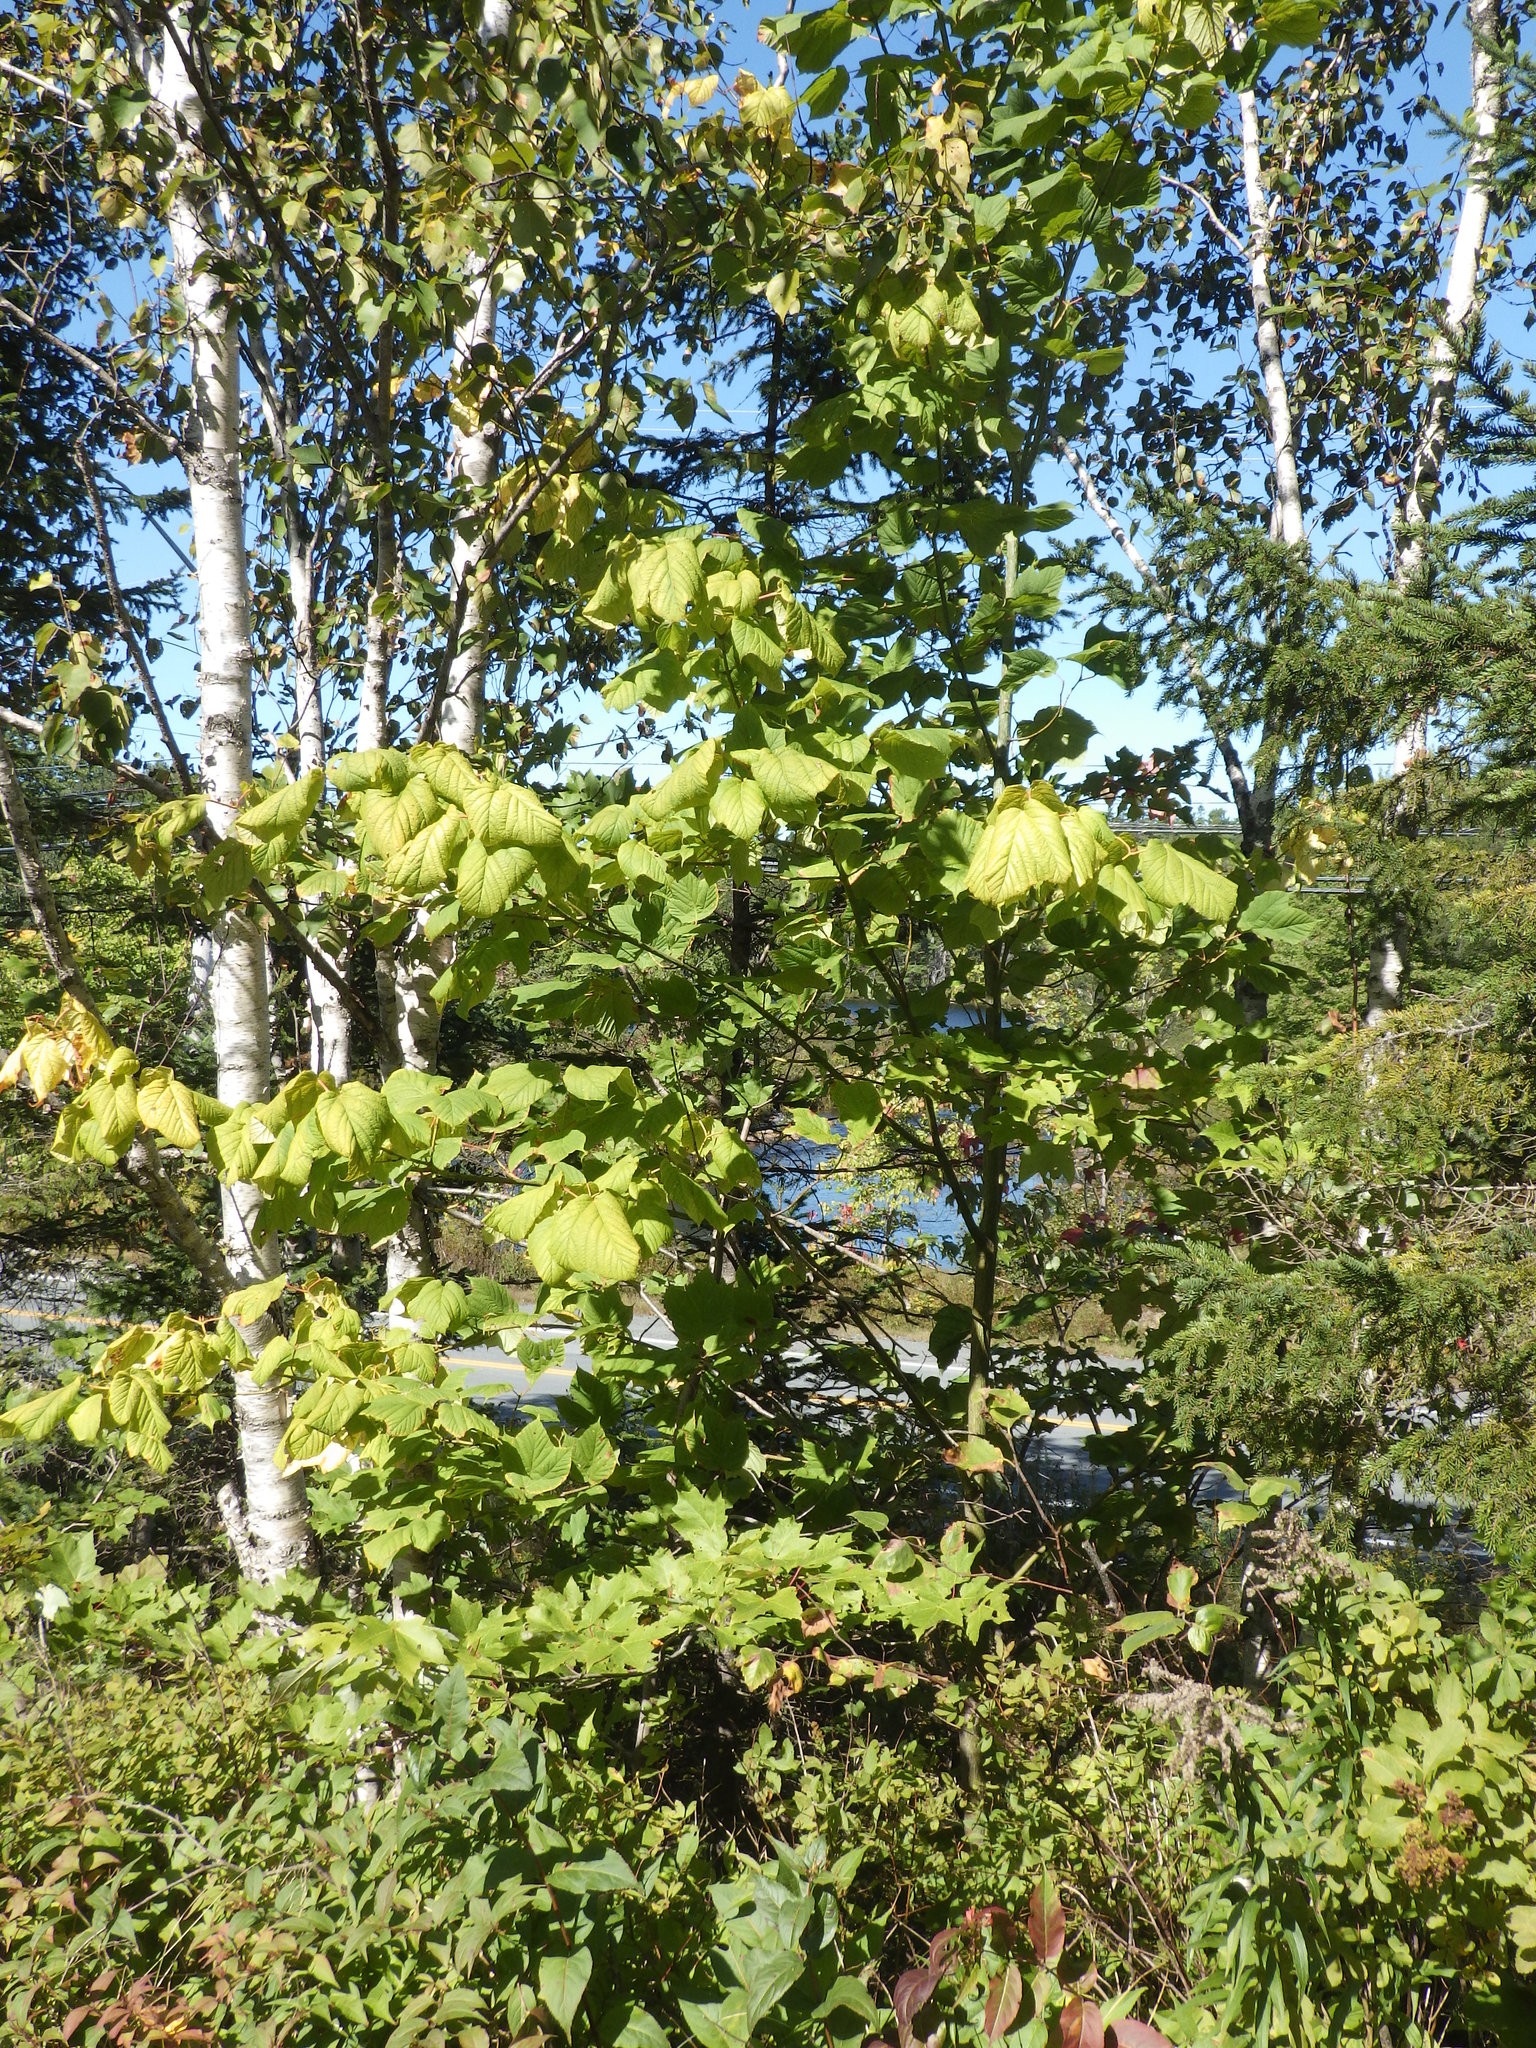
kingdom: Plantae
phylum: Tracheophyta
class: Magnoliopsida
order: Sapindales
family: Sapindaceae
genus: Acer
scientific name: Acer pensylvanicum
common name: Moosewood
